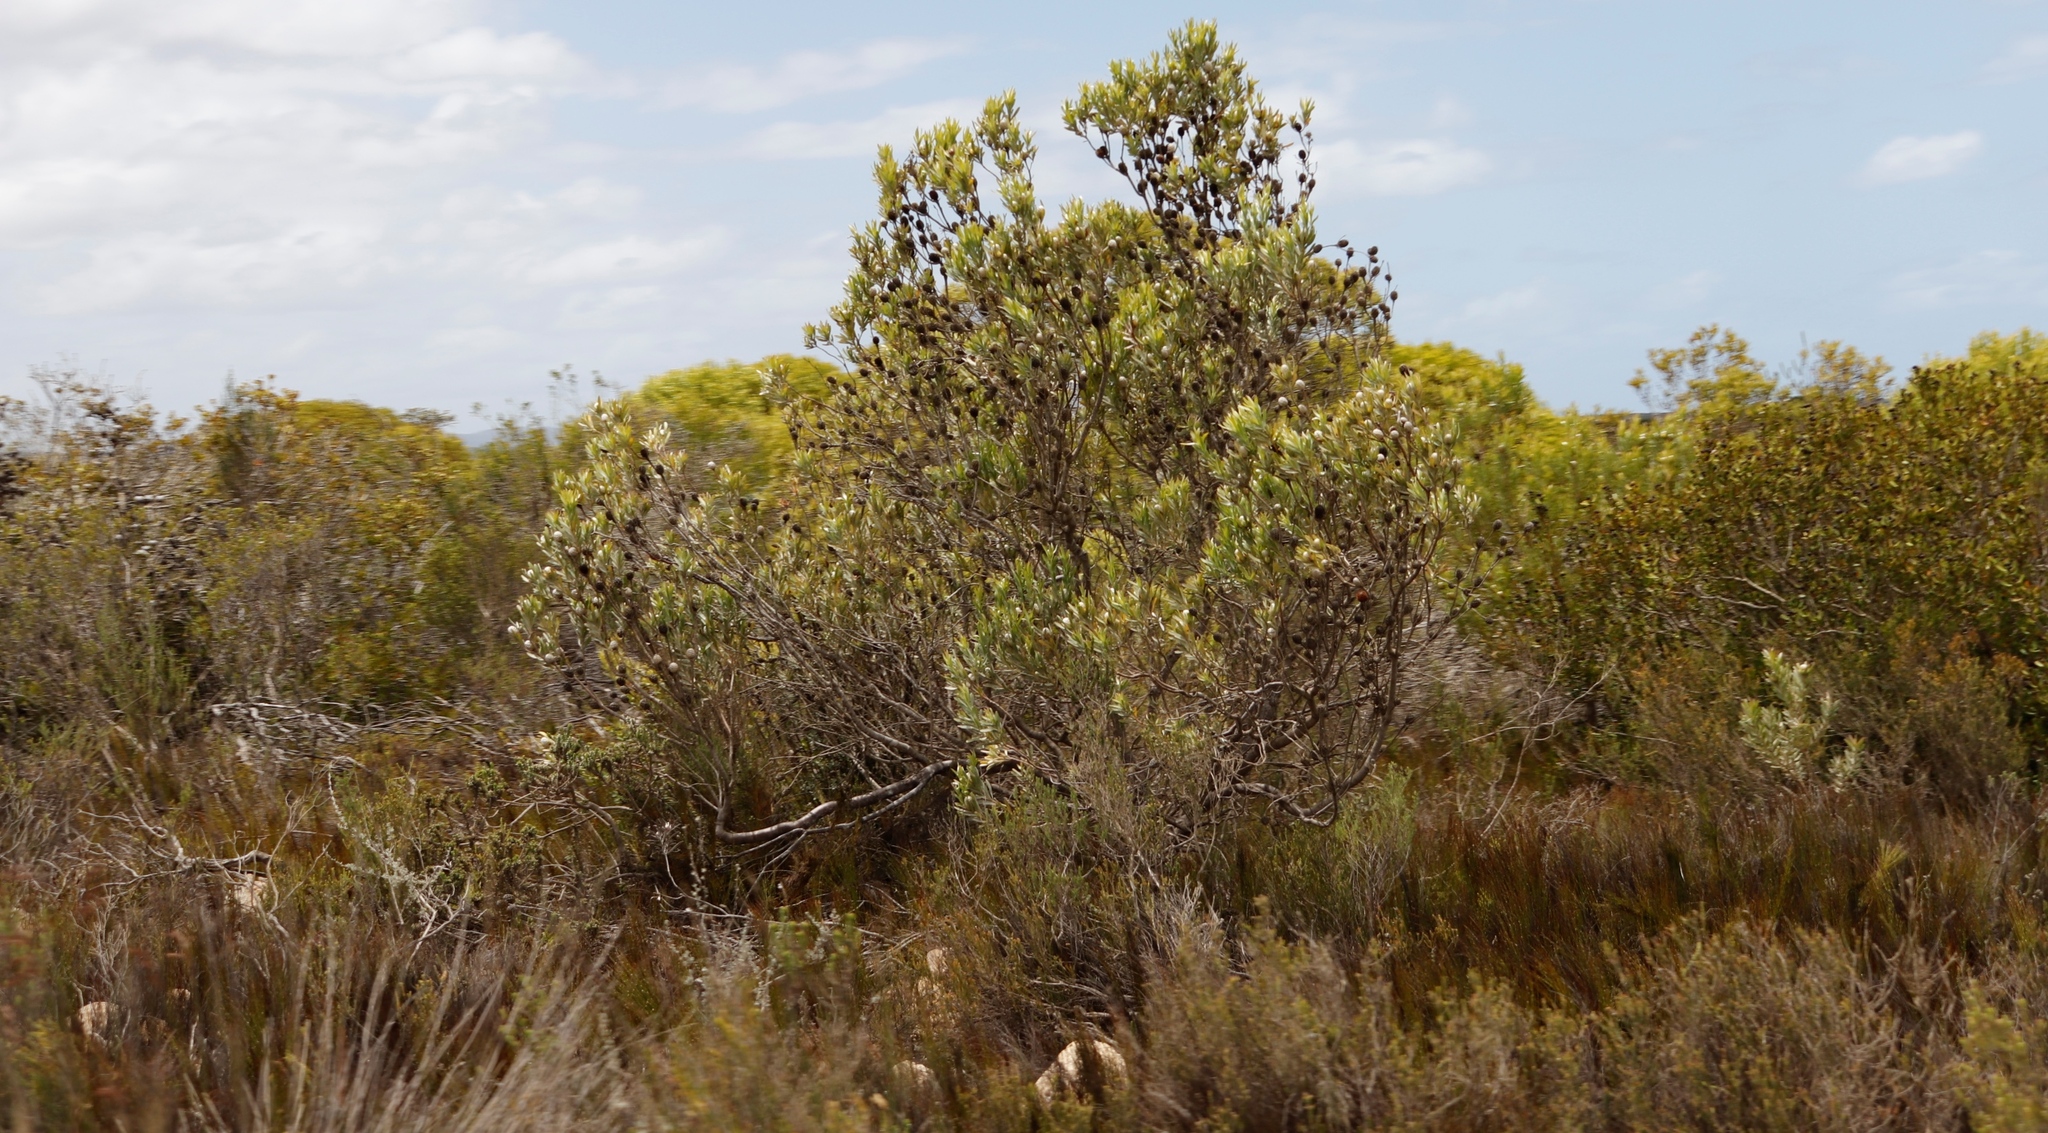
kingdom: Plantae
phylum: Tracheophyta
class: Magnoliopsida
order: Proteales
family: Proteaceae
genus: Leucadendron
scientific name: Leucadendron meridianum
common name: Limestone conebush
